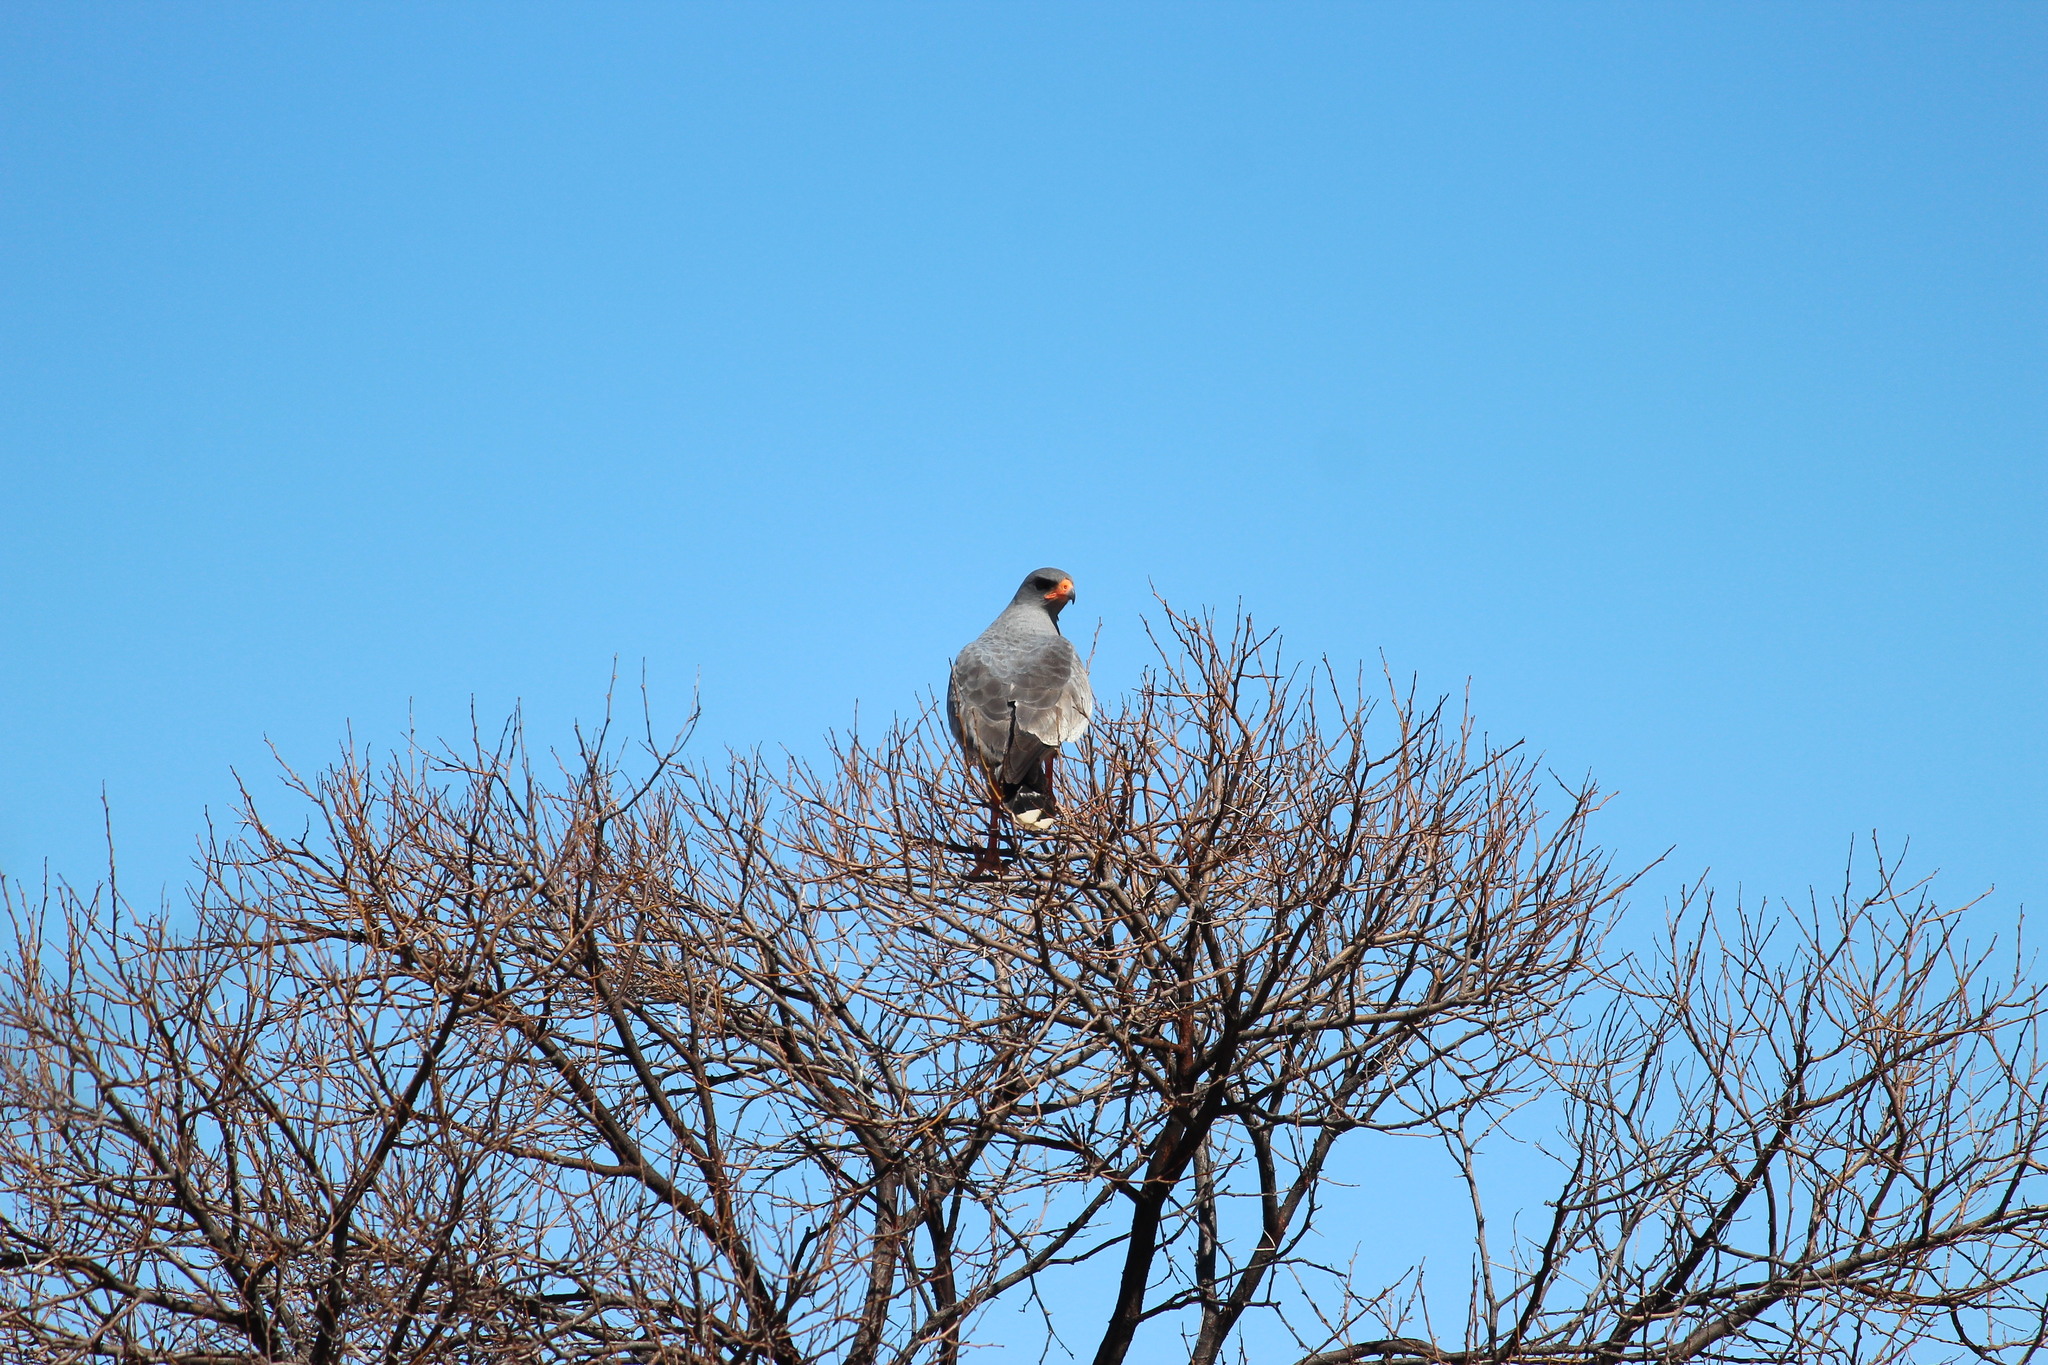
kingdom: Animalia
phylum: Chordata
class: Aves
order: Accipitriformes
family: Accipitridae
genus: Melierax
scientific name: Melierax canorus
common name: Pale chanting-goshawk
